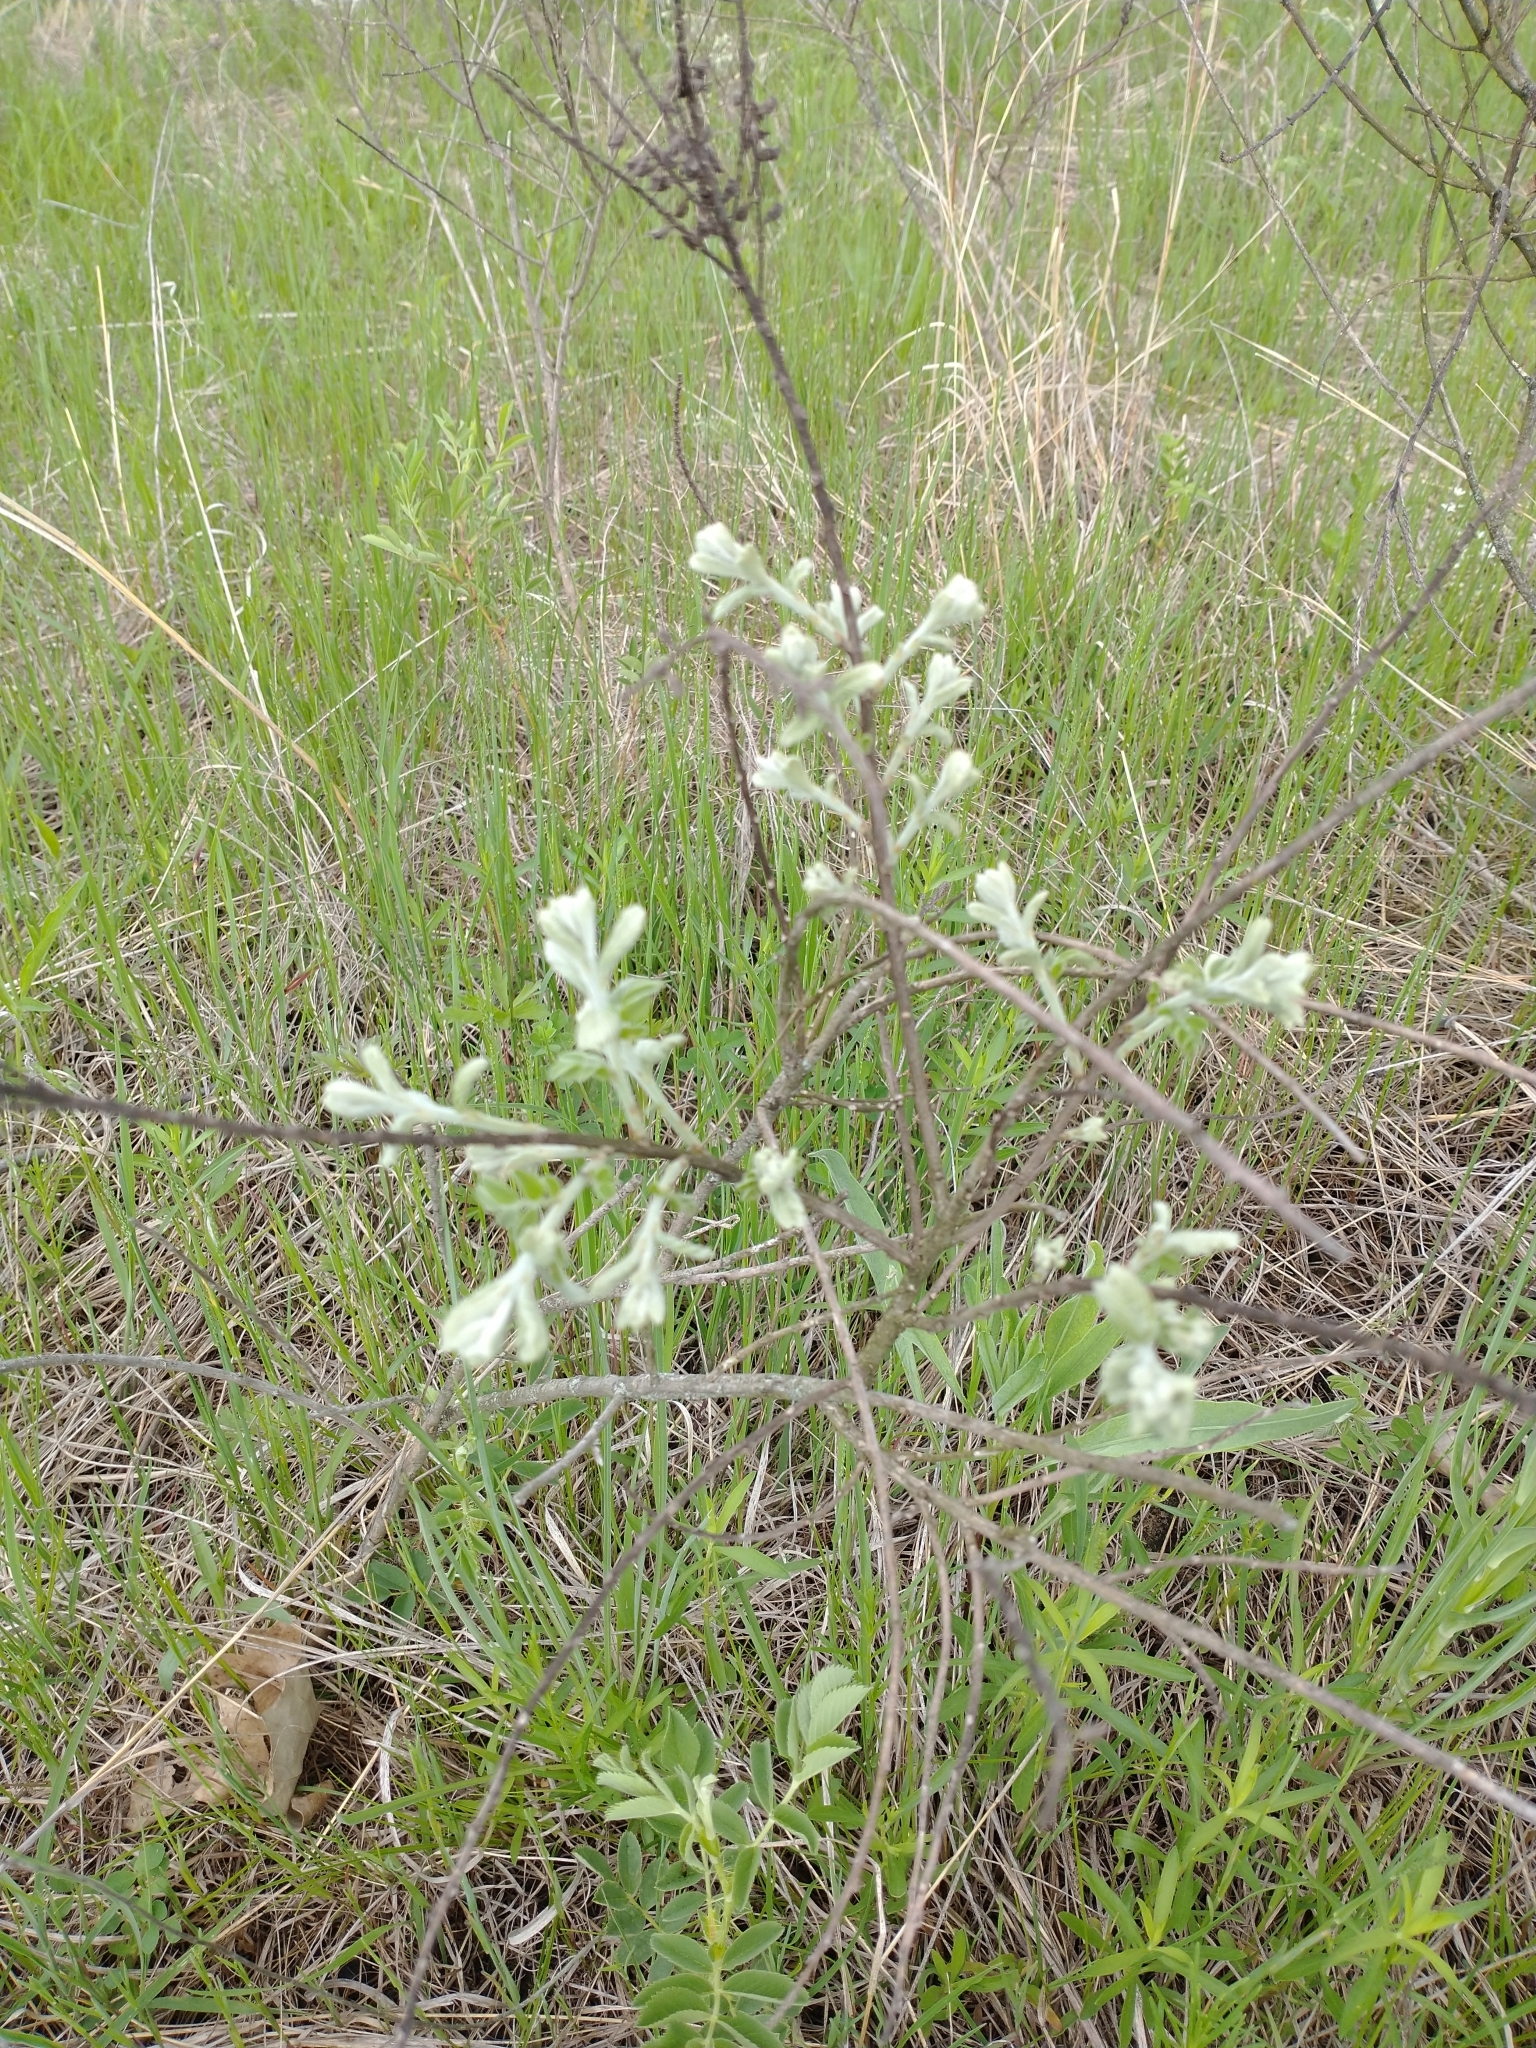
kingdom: Plantae
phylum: Tracheophyta
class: Magnoliopsida
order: Fabales
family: Fabaceae
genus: Amorpha
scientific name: Amorpha canescens
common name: Leadplant
